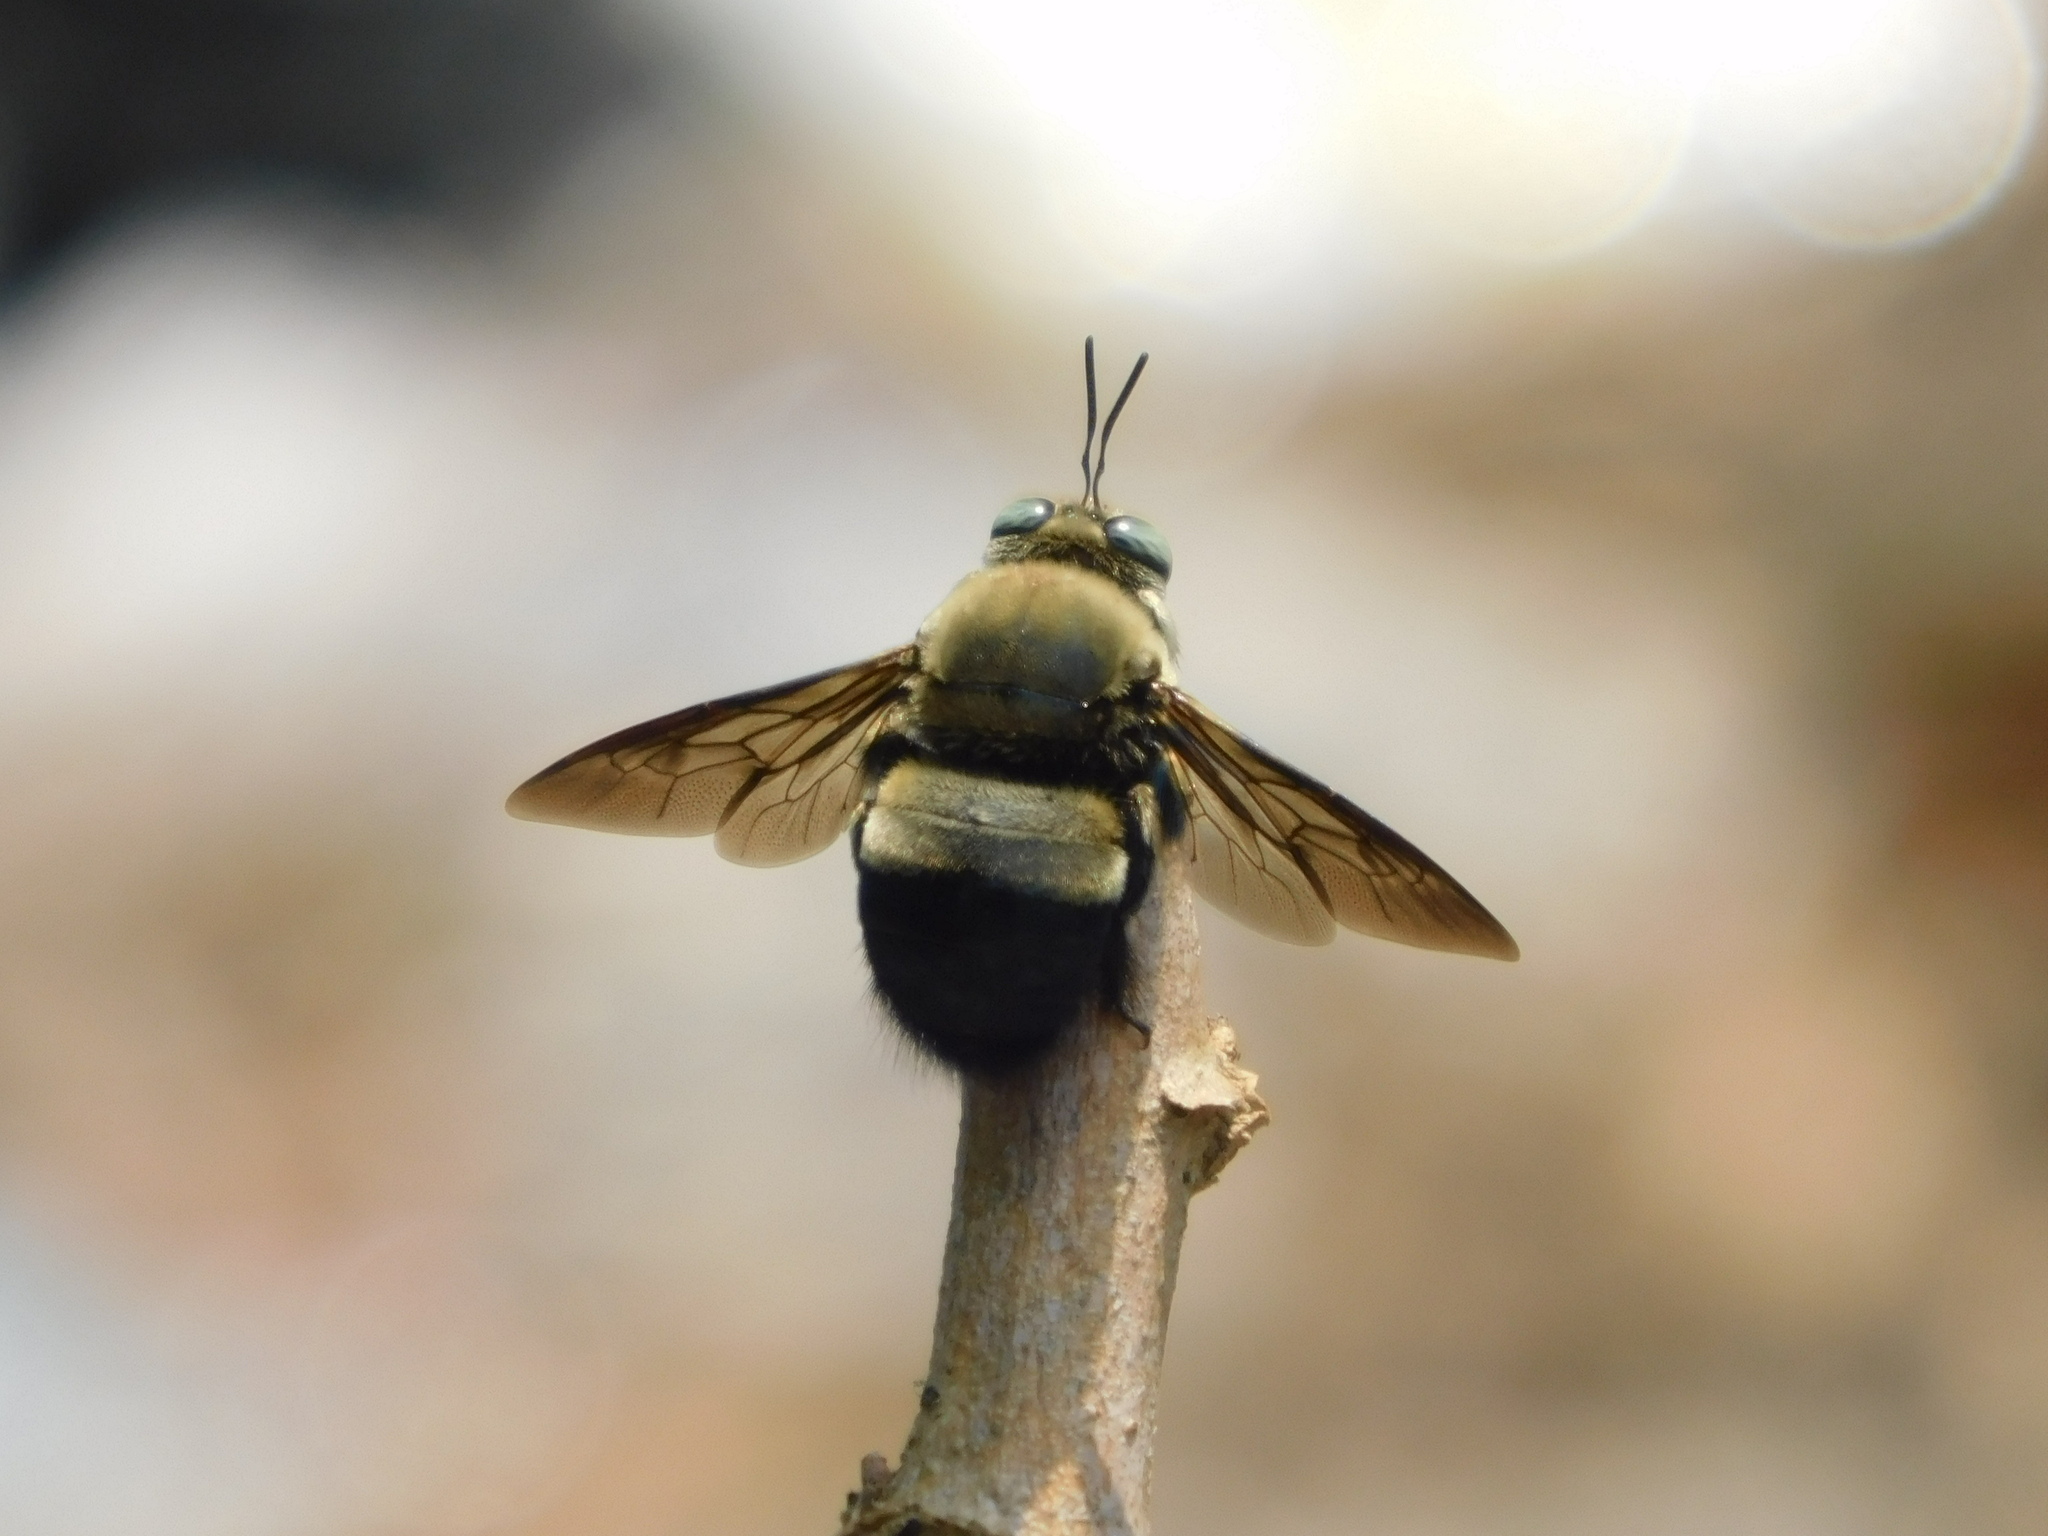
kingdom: Animalia
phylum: Arthropoda
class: Insecta
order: Hymenoptera
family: Apidae
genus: Xylocopa
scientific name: Xylocopa dejeanii
